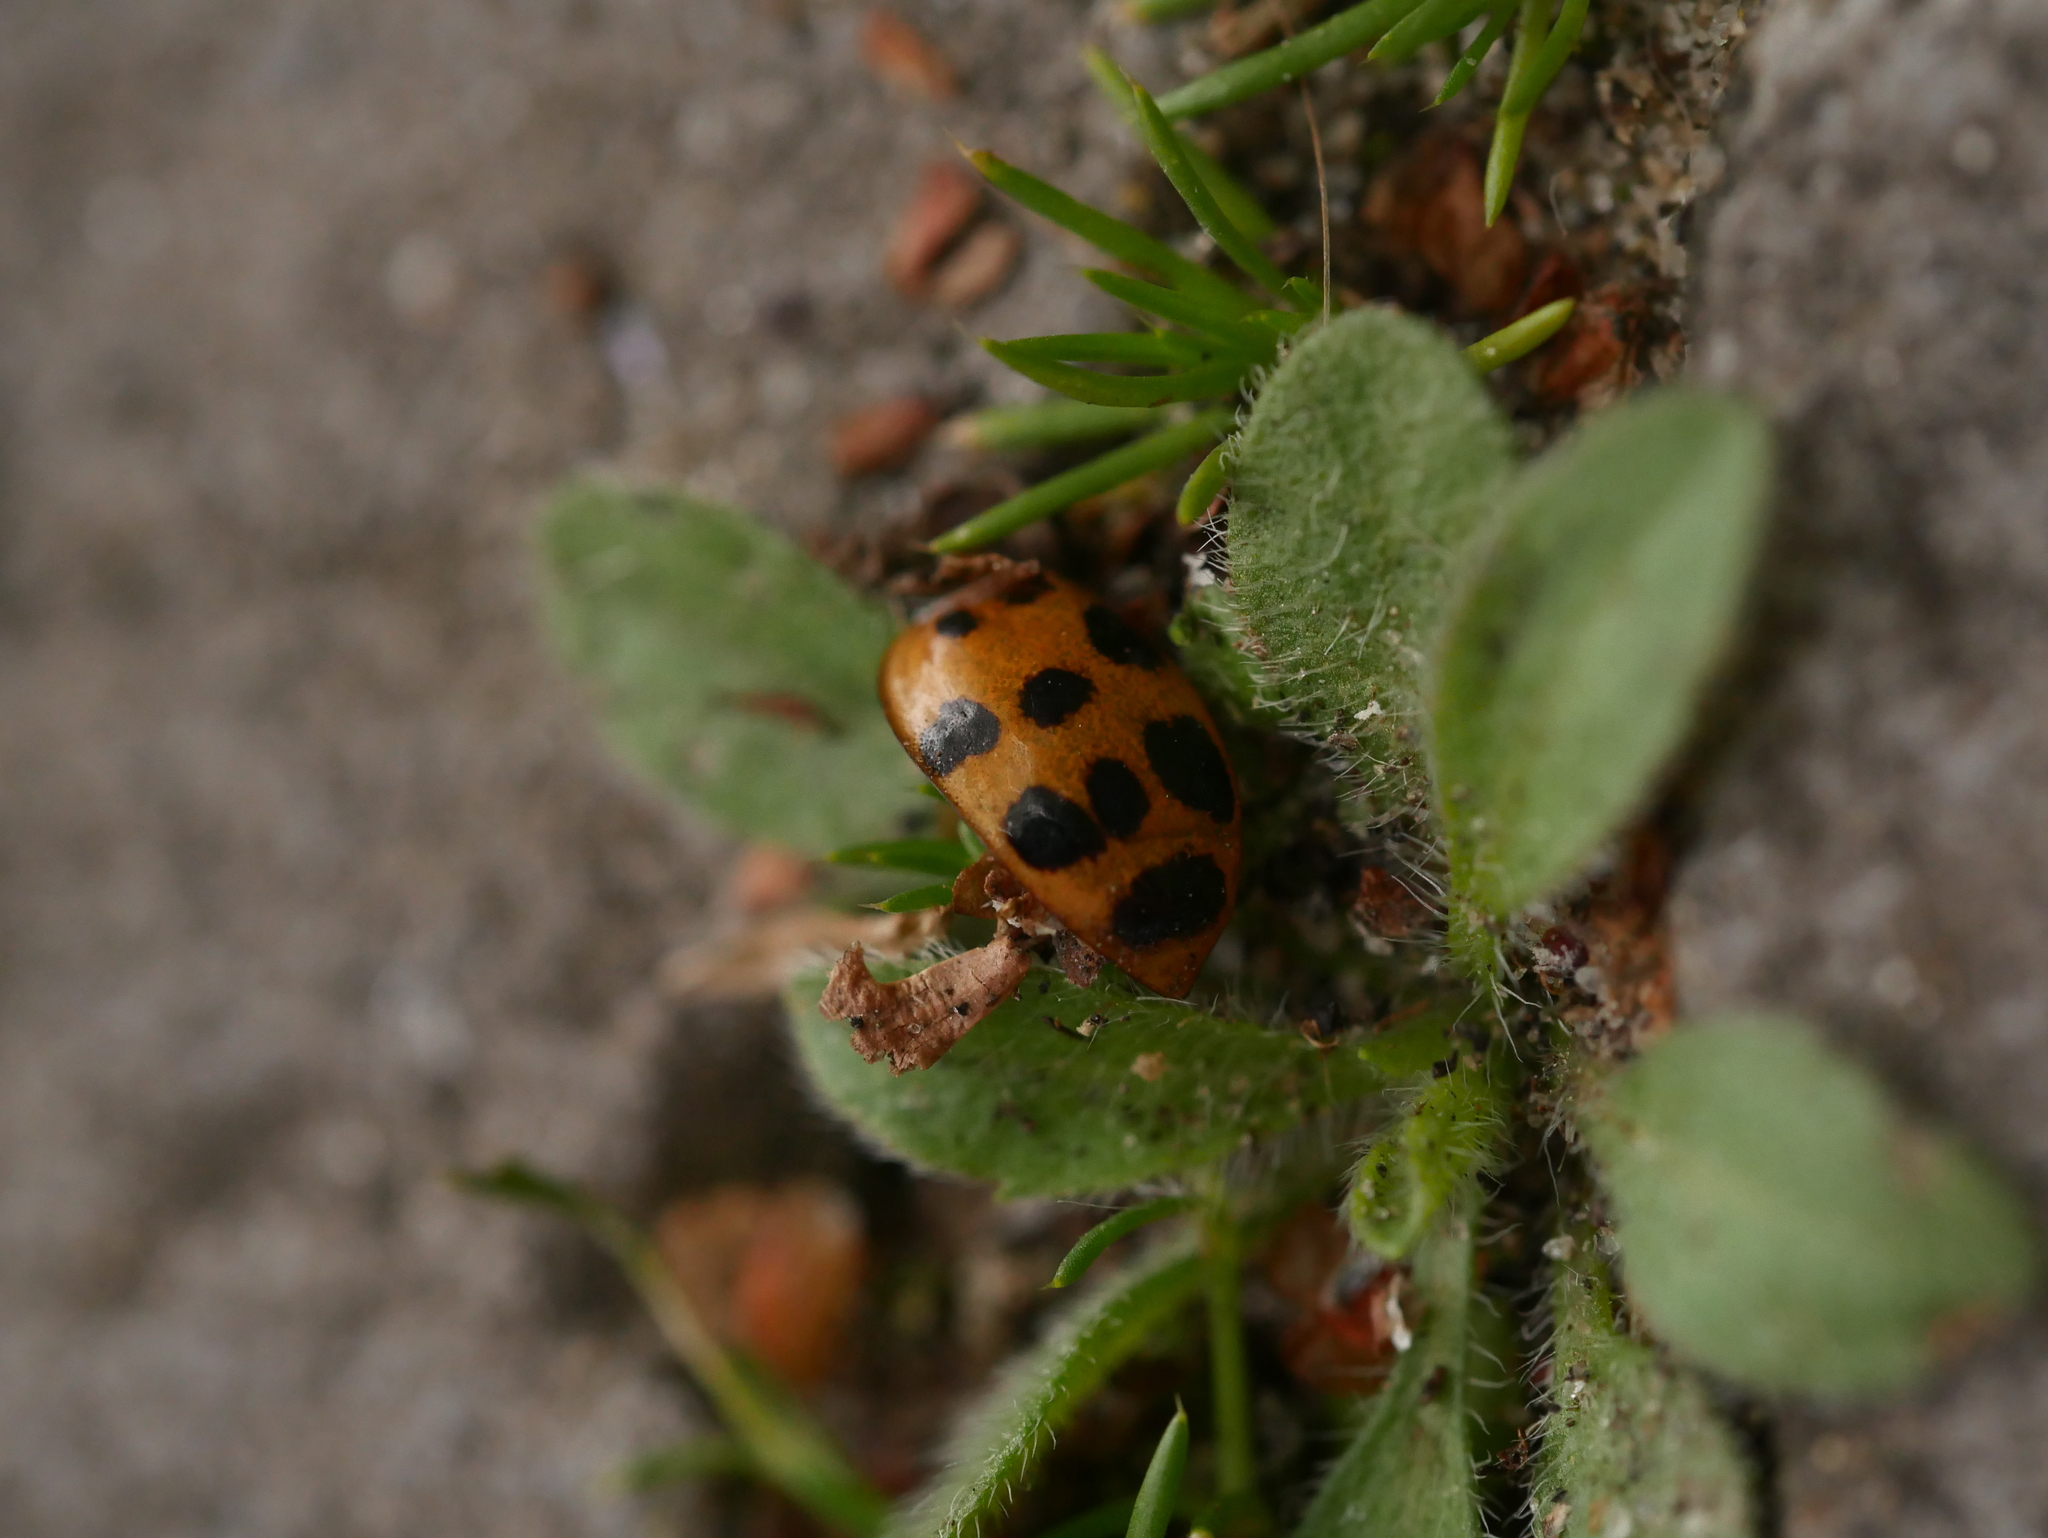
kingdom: Animalia
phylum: Arthropoda
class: Insecta
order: Coleoptera
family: Coccinellidae
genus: Harmonia
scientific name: Harmonia axyridis
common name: Harlequin ladybird
